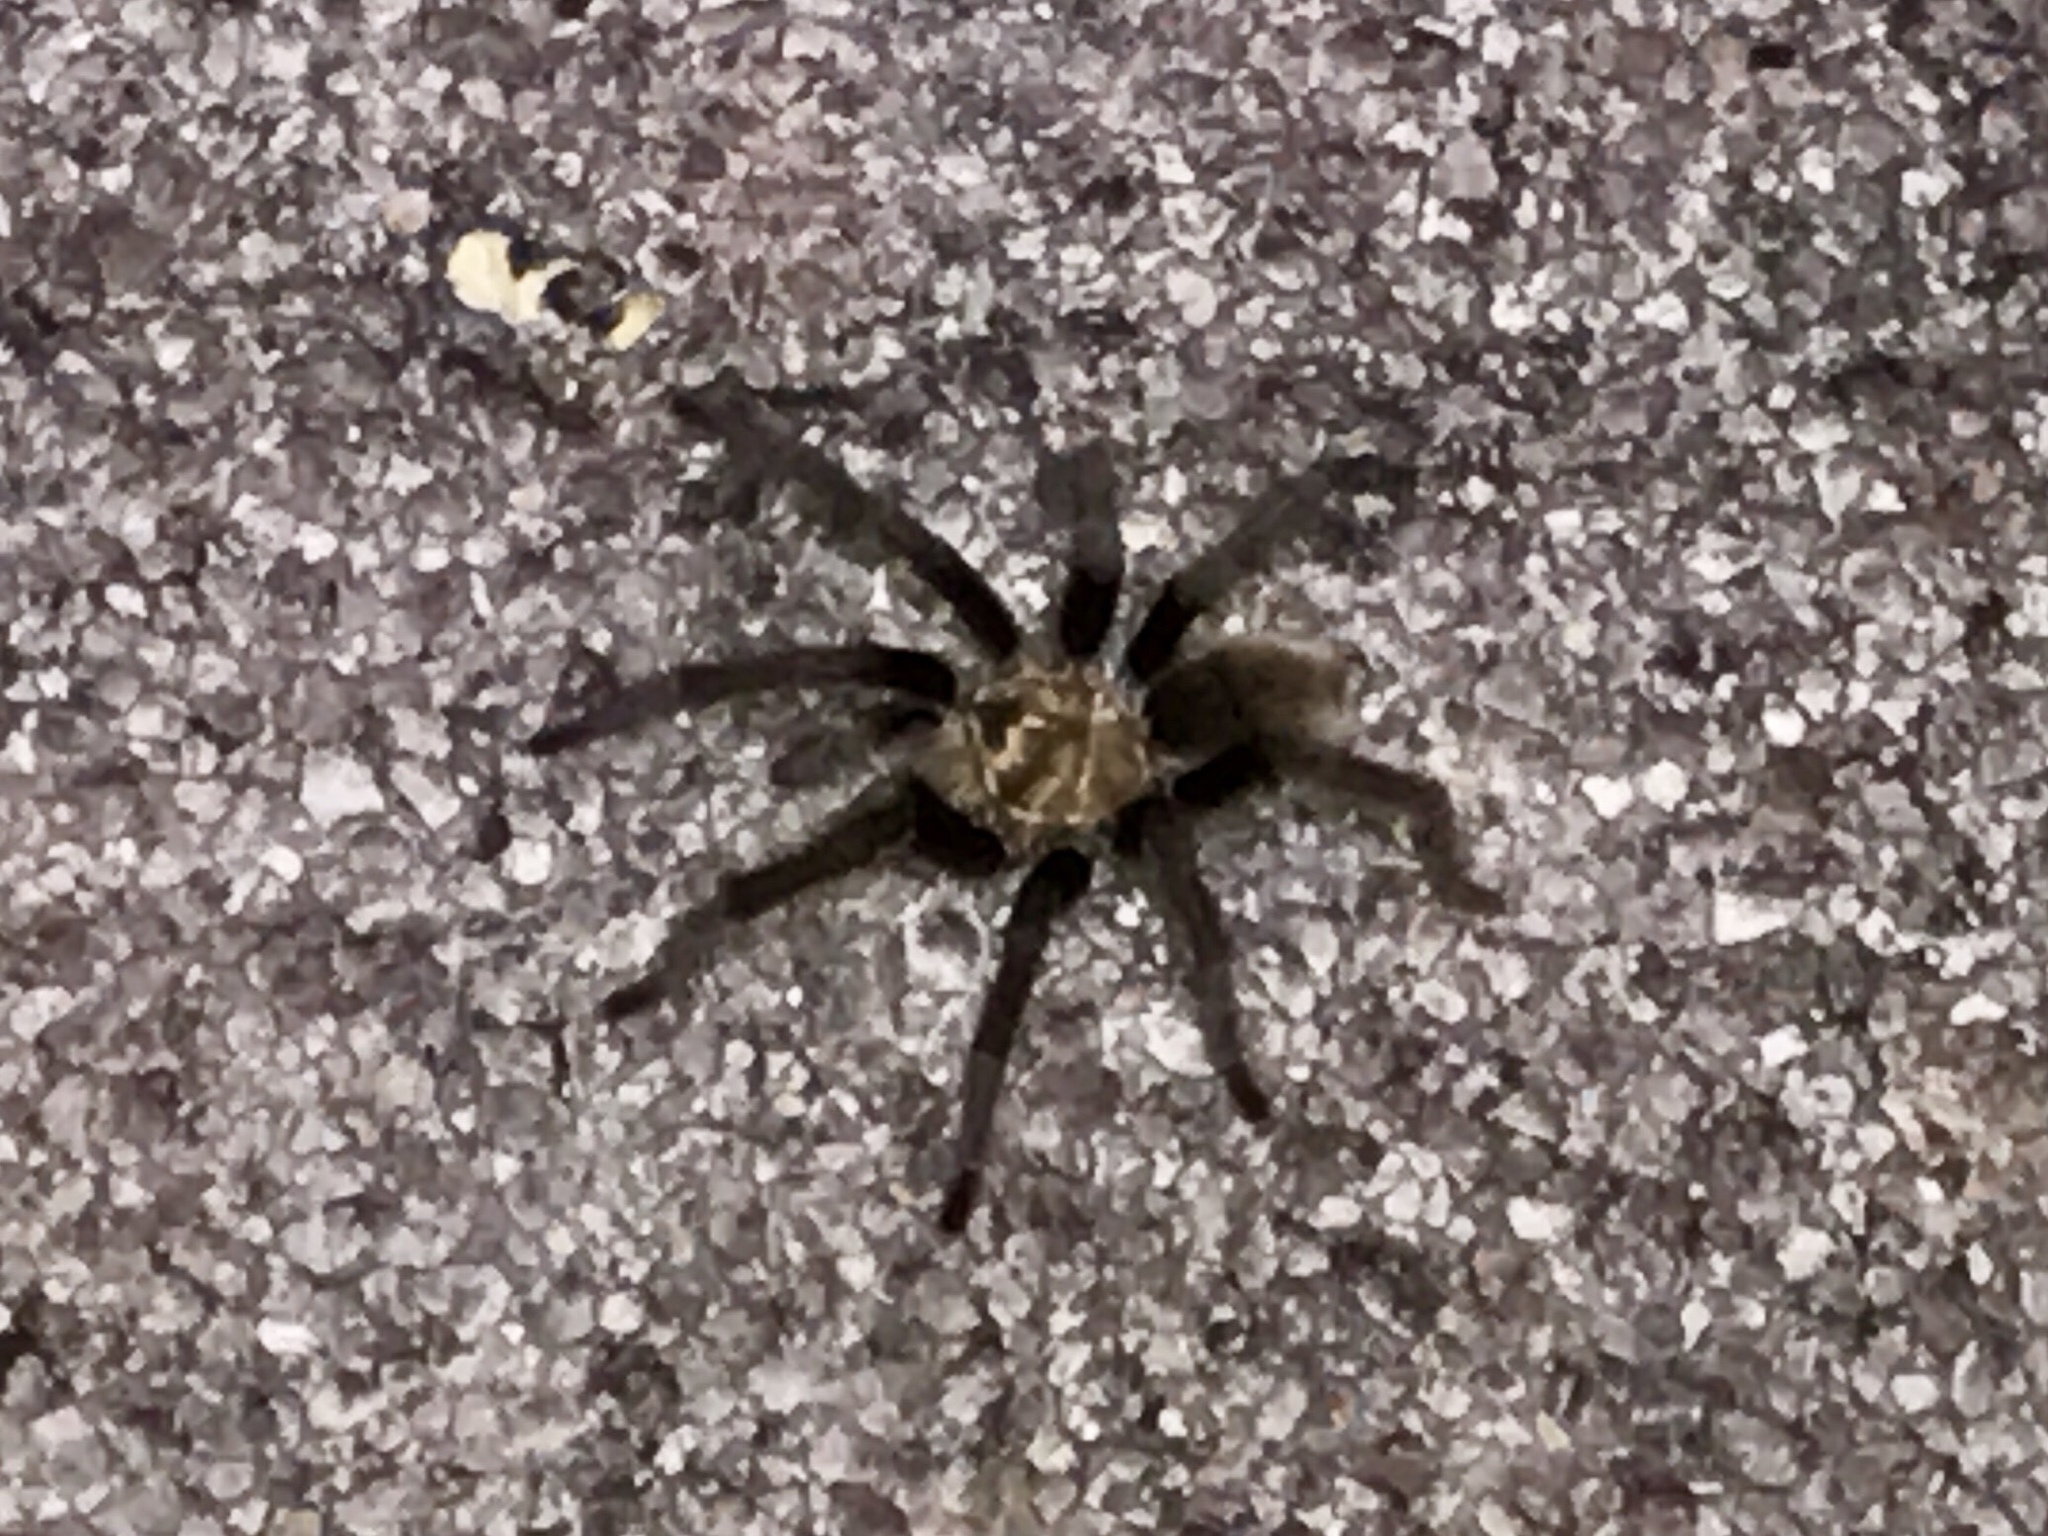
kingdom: Animalia
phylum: Arthropoda
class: Arachnida
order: Araneae
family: Theraphosidae
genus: Aphonopelma
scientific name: Aphonopelma chalcodes
